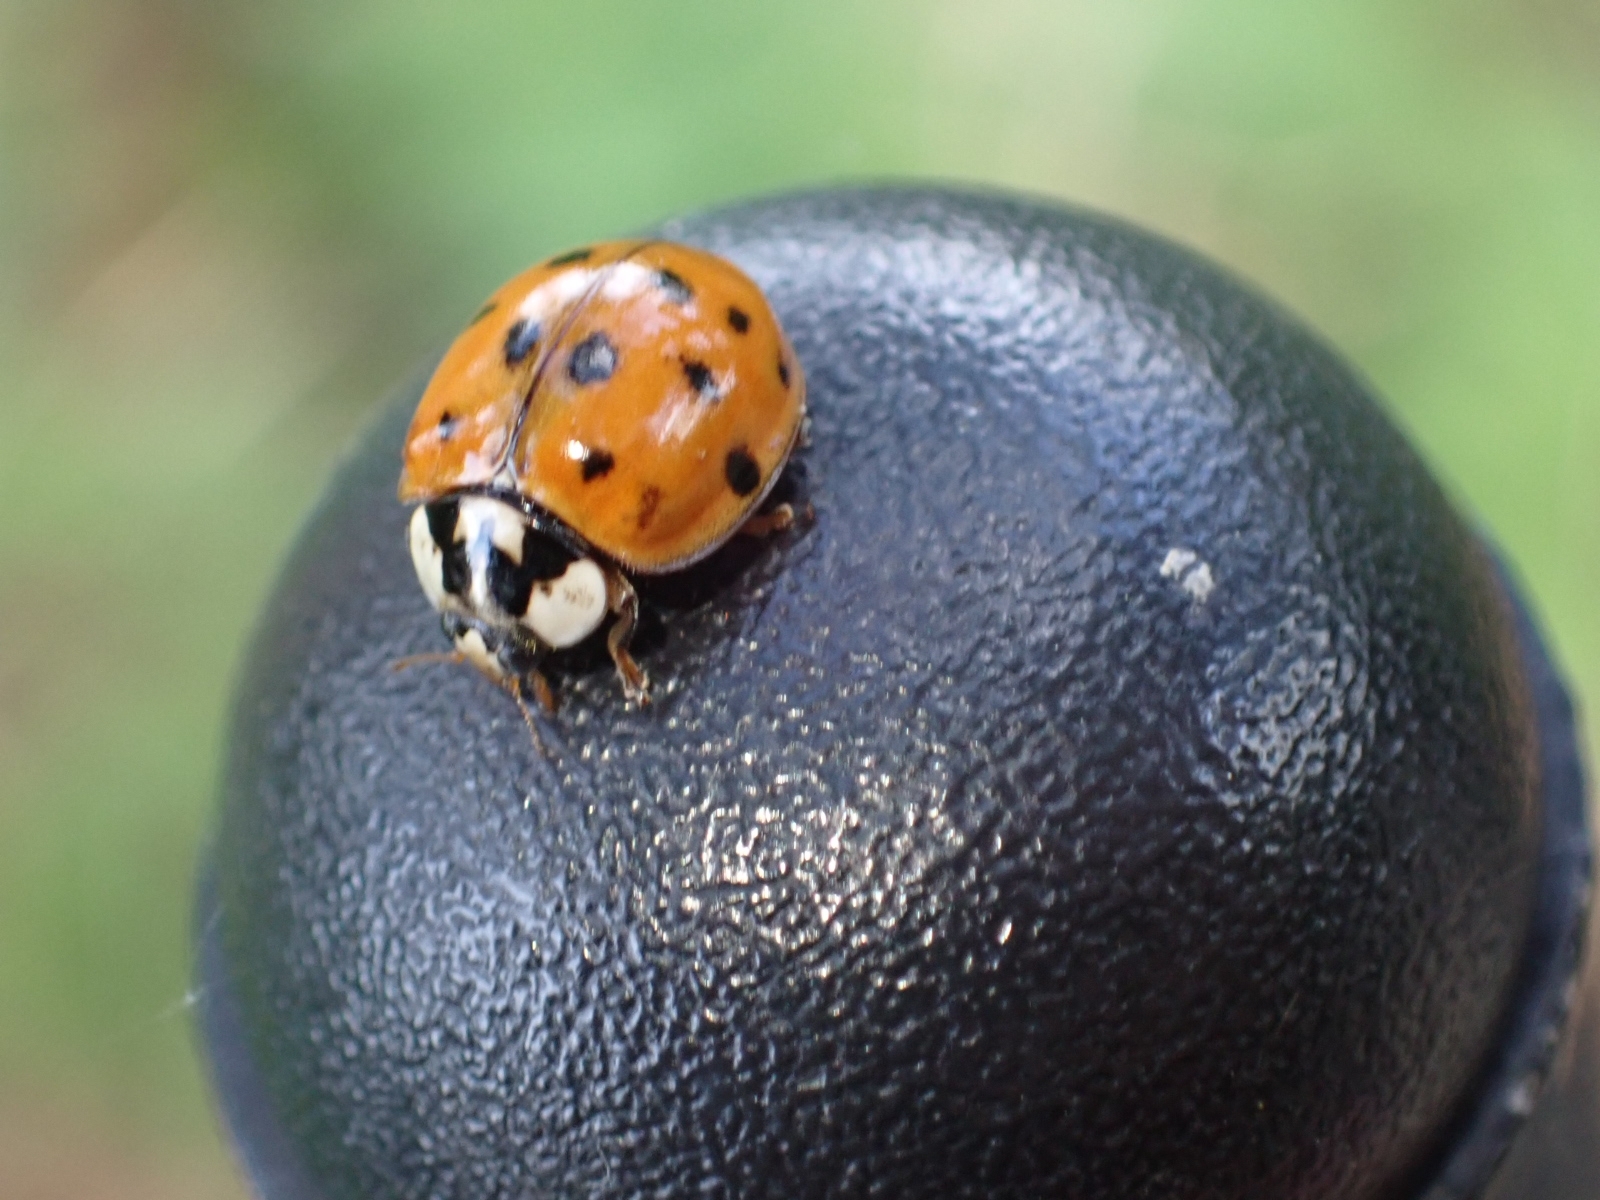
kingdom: Animalia
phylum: Arthropoda
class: Insecta
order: Coleoptera
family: Coccinellidae
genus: Harmonia
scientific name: Harmonia axyridis
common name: Harlequin ladybird
